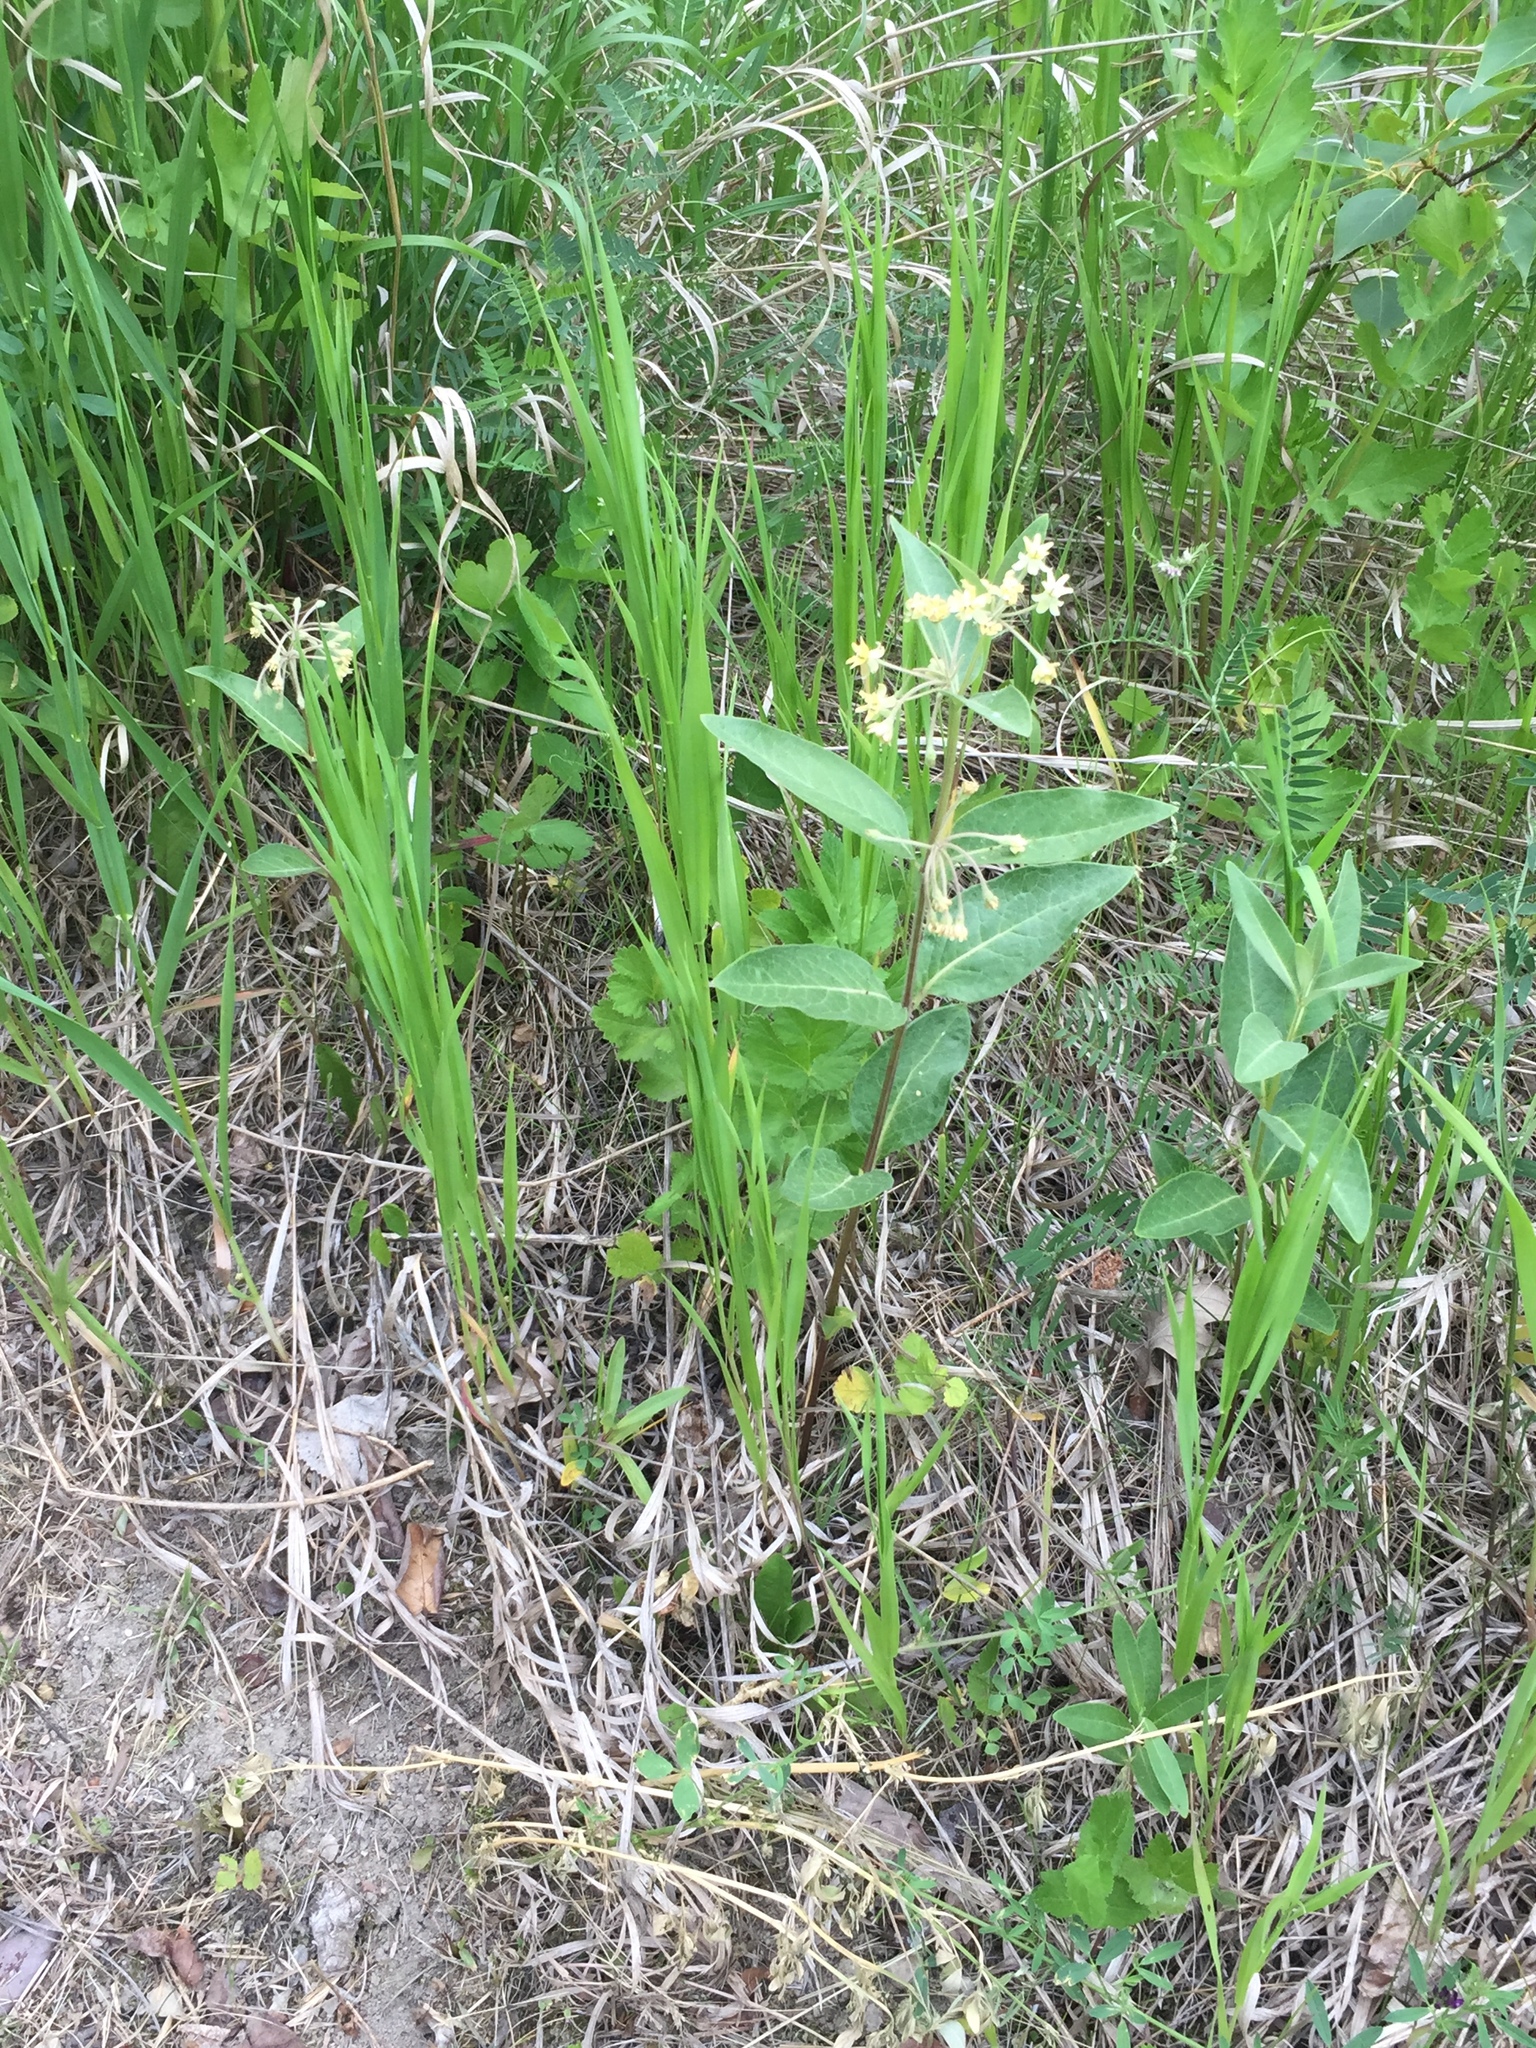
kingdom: Plantae
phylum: Tracheophyta
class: Magnoliopsida
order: Gentianales
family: Apocynaceae
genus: Asclepias
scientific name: Asclepias ovalifolia
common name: Dwarf milkweed
